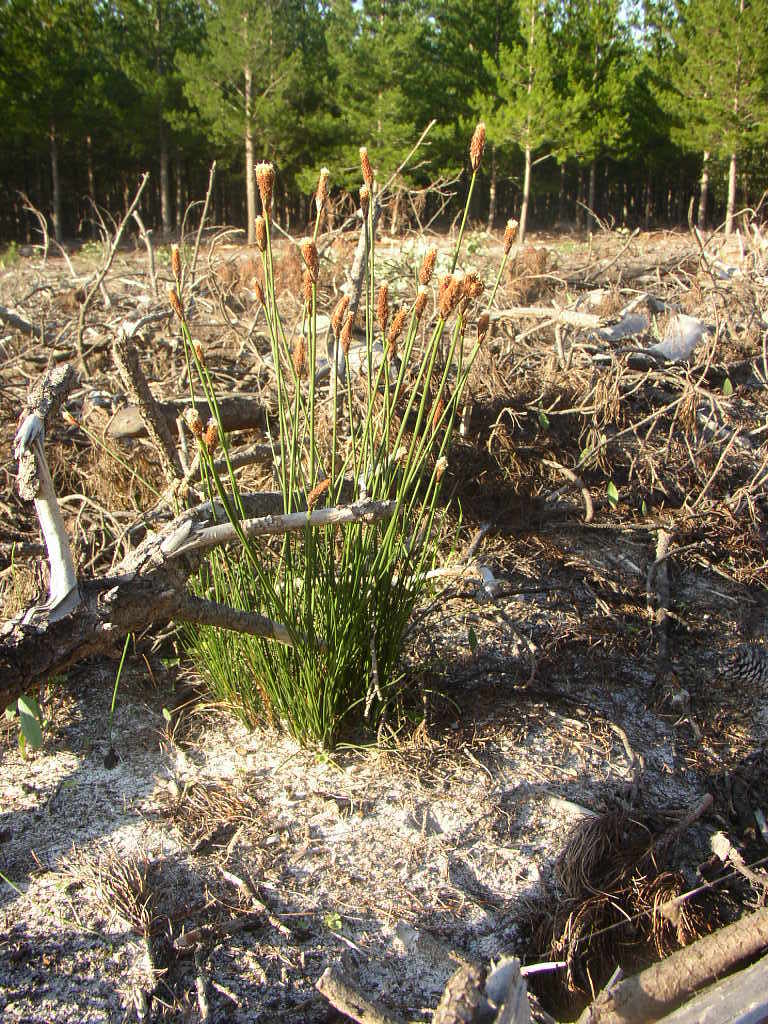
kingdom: Plantae
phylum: Tracheophyta
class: Liliopsida
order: Poales
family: Cyperaceae
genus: Ficinia
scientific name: Ficinia deusta
